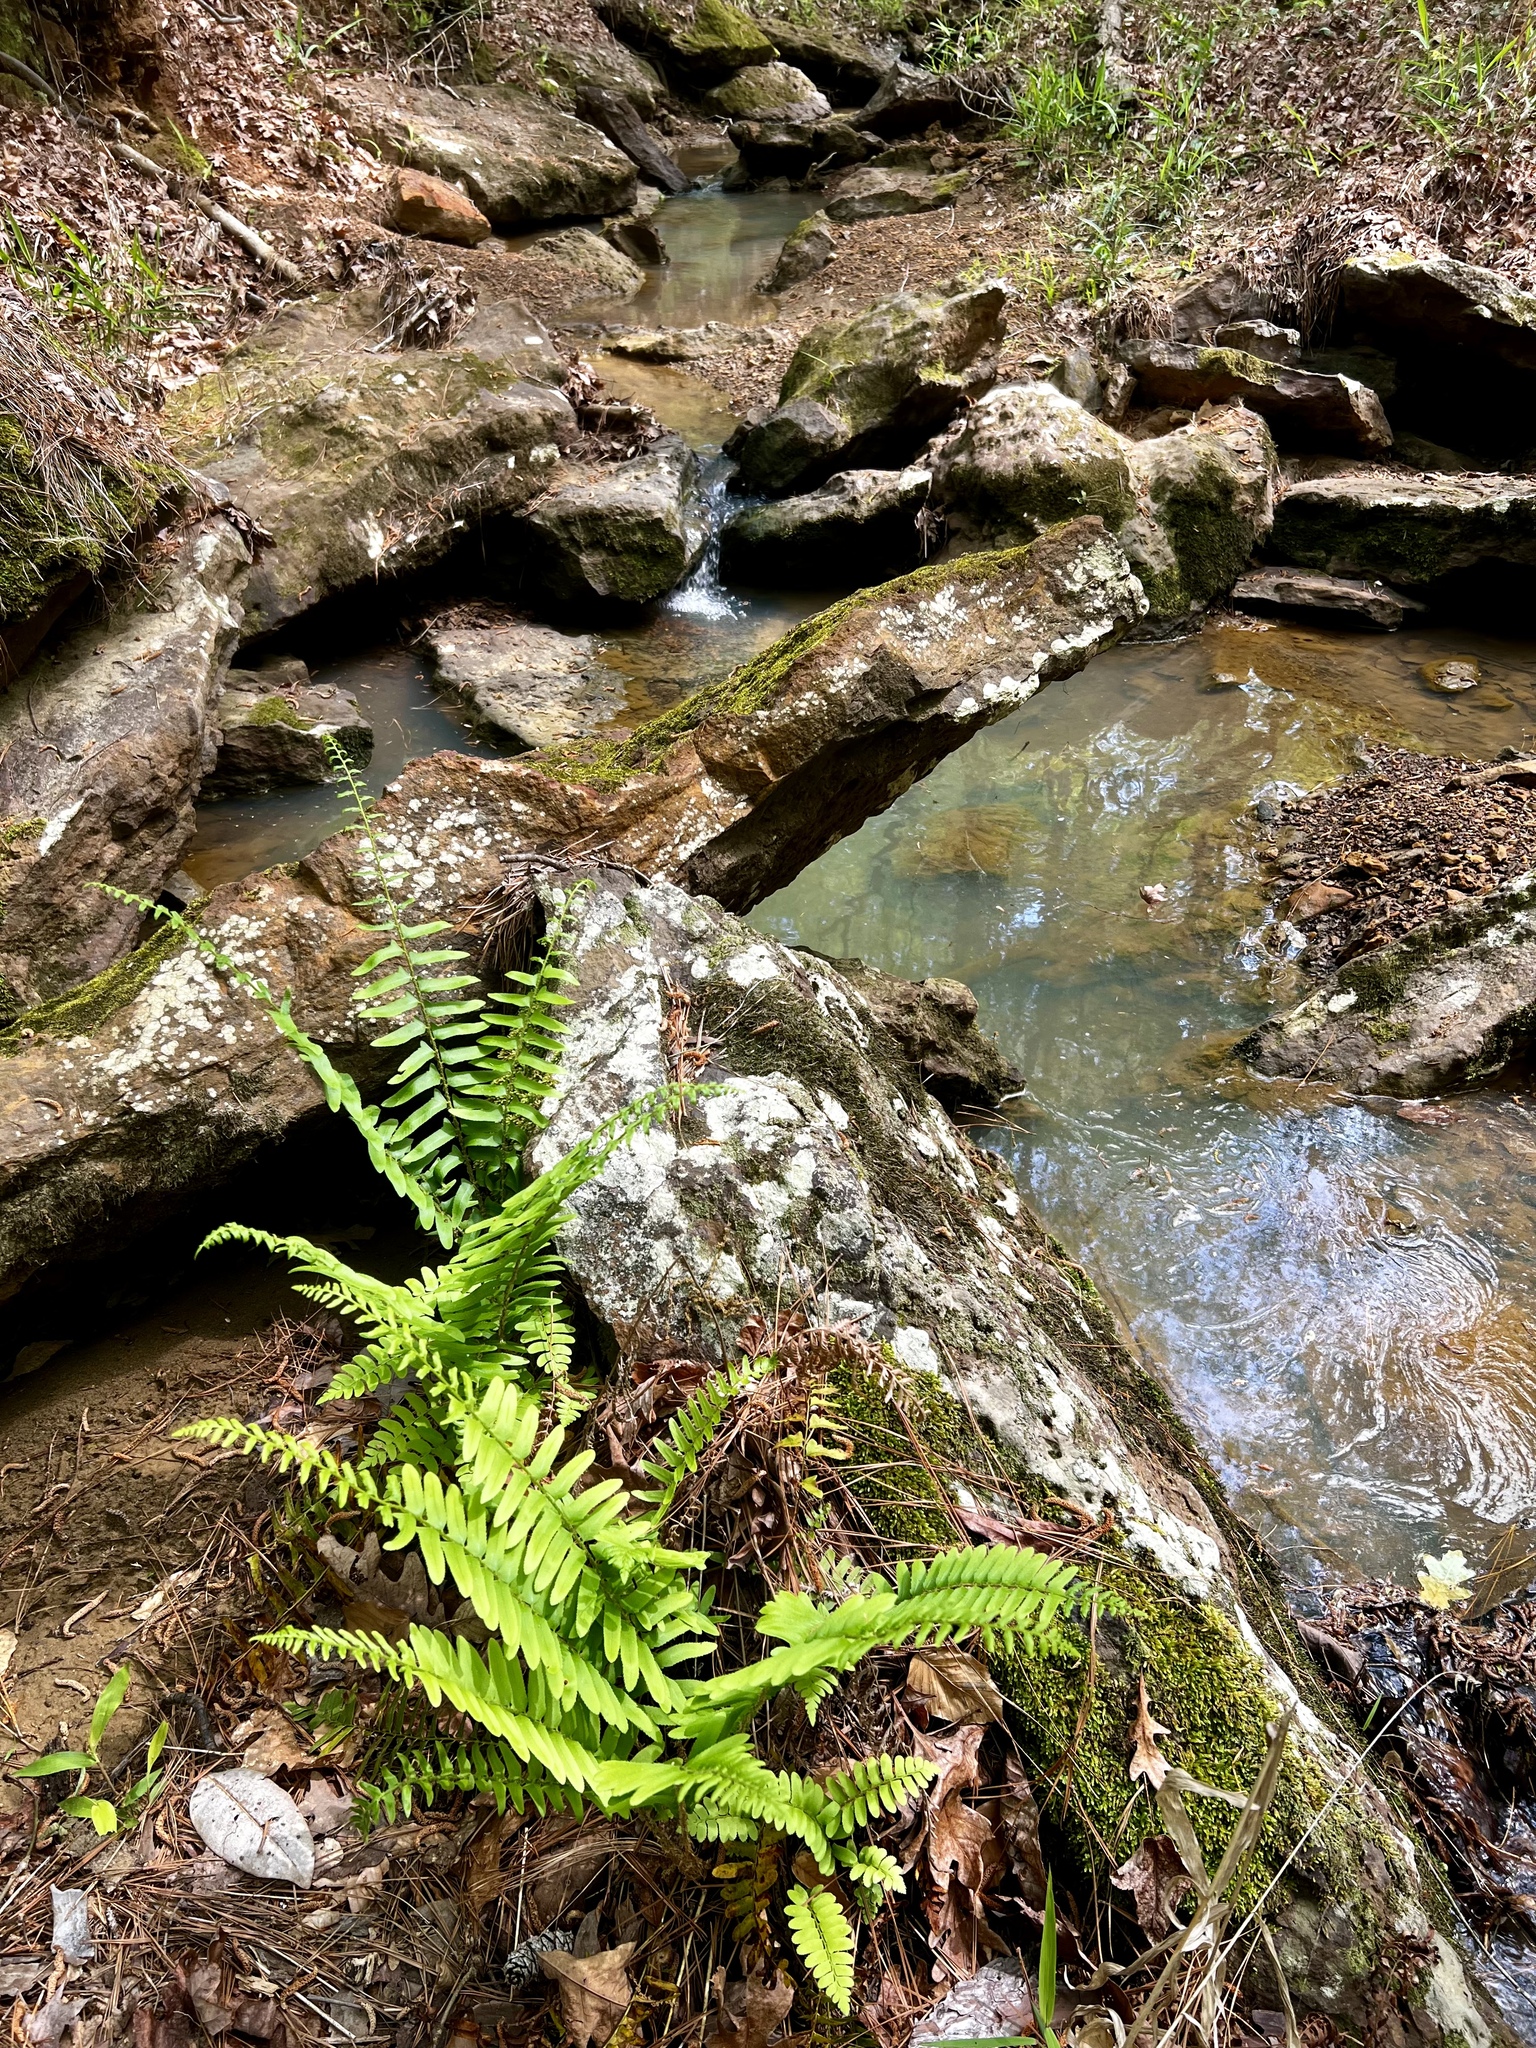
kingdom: Plantae
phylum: Tracheophyta
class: Polypodiopsida
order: Polypodiales
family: Dryopteridaceae
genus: Polystichum
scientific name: Polystichum acrostichoides
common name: Christmas fern
